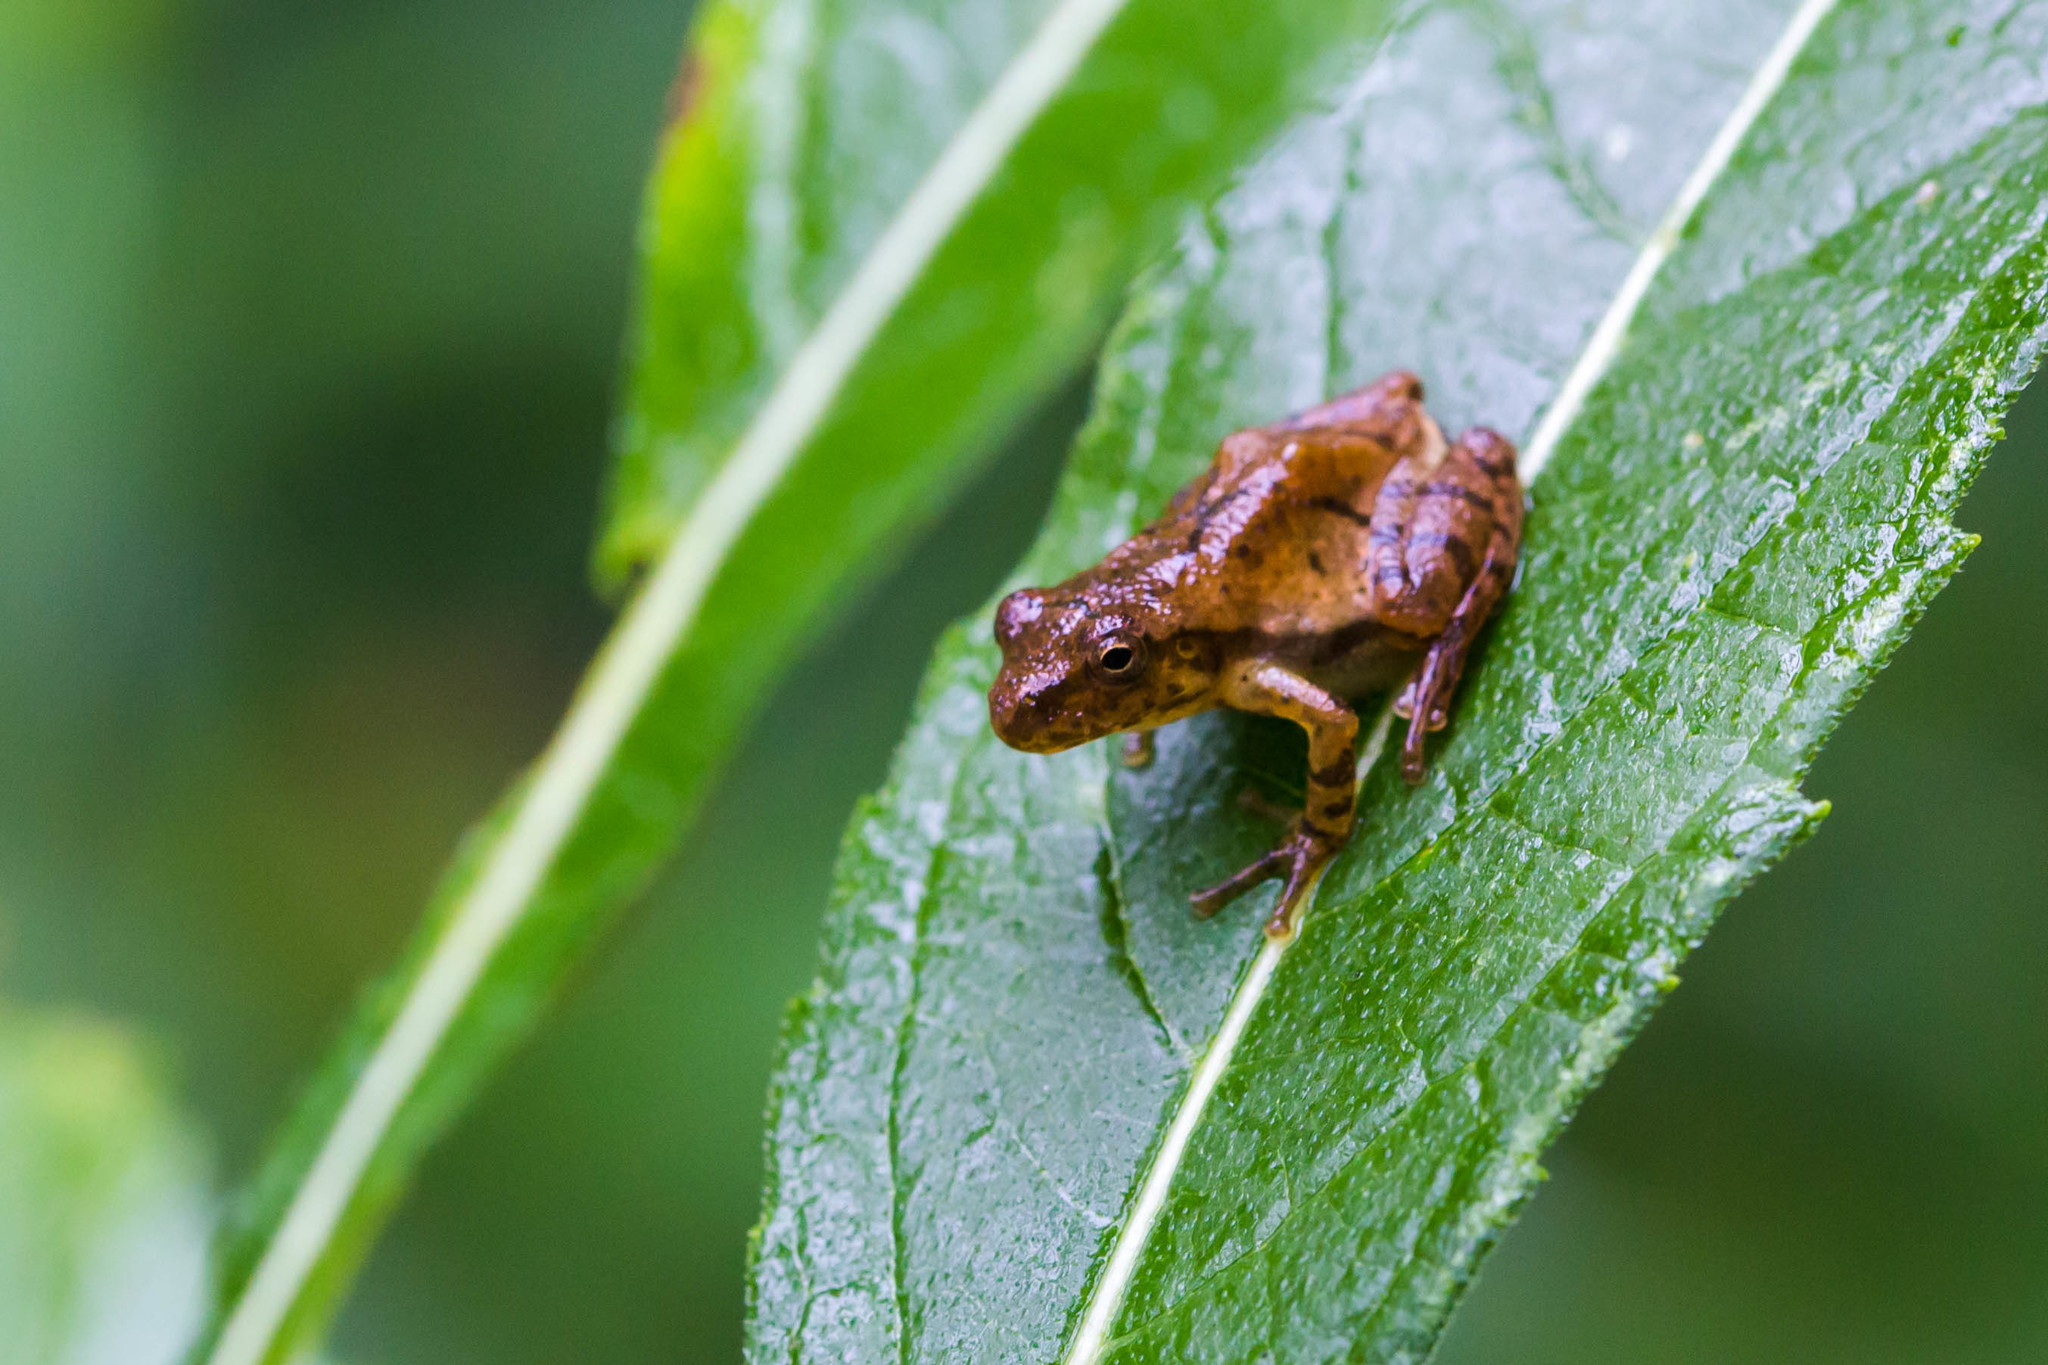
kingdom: Animalia
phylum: Chordata
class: Amphibia
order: Anura
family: Hylidae
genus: Pseudacris
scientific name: Pseudacris crucifer
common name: Spring peeper
